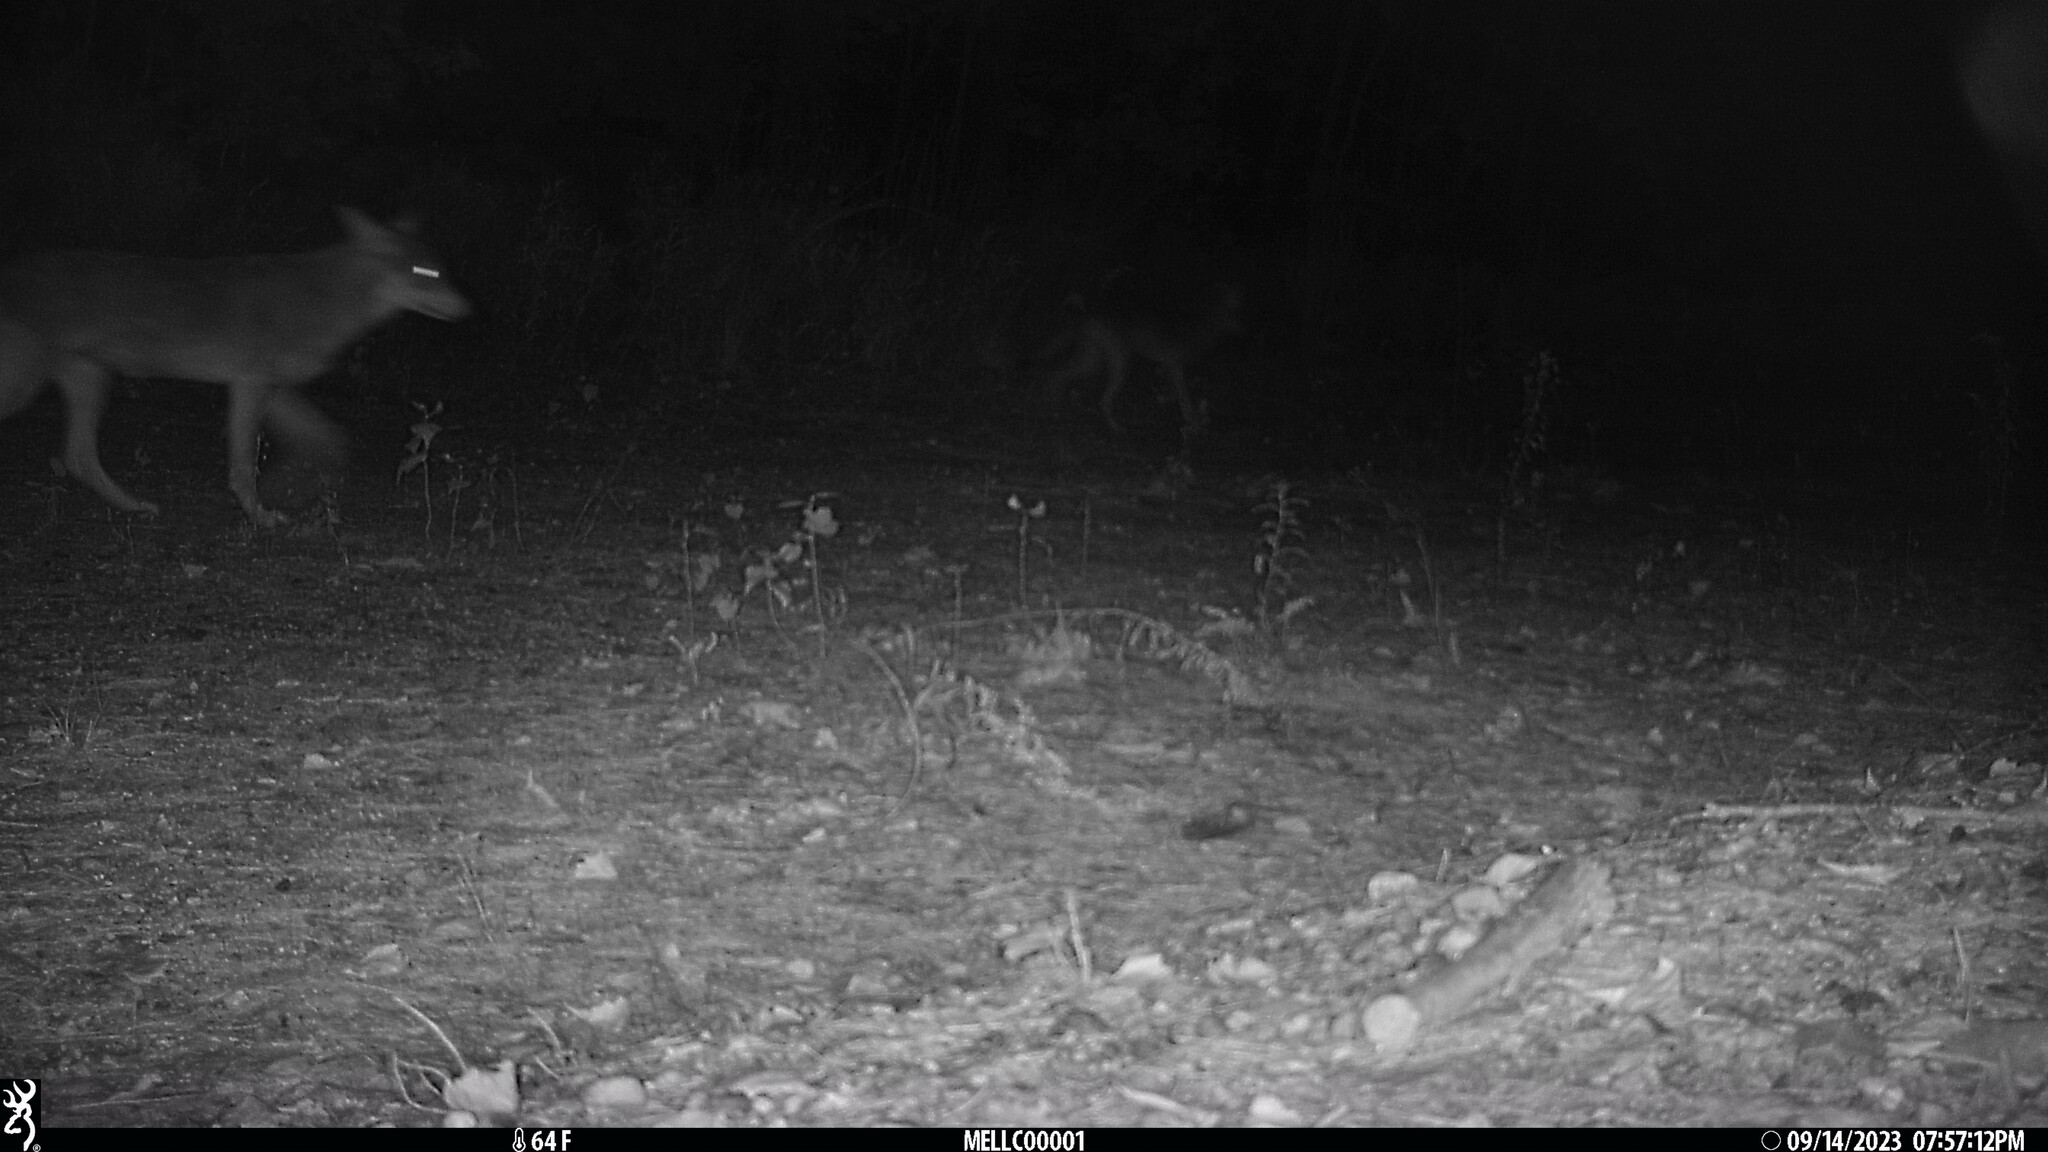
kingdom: Animalia
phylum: Chordata
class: Mammalia
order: Carnivora
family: Canidae
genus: Canis
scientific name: Canis latrans
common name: Coyote
